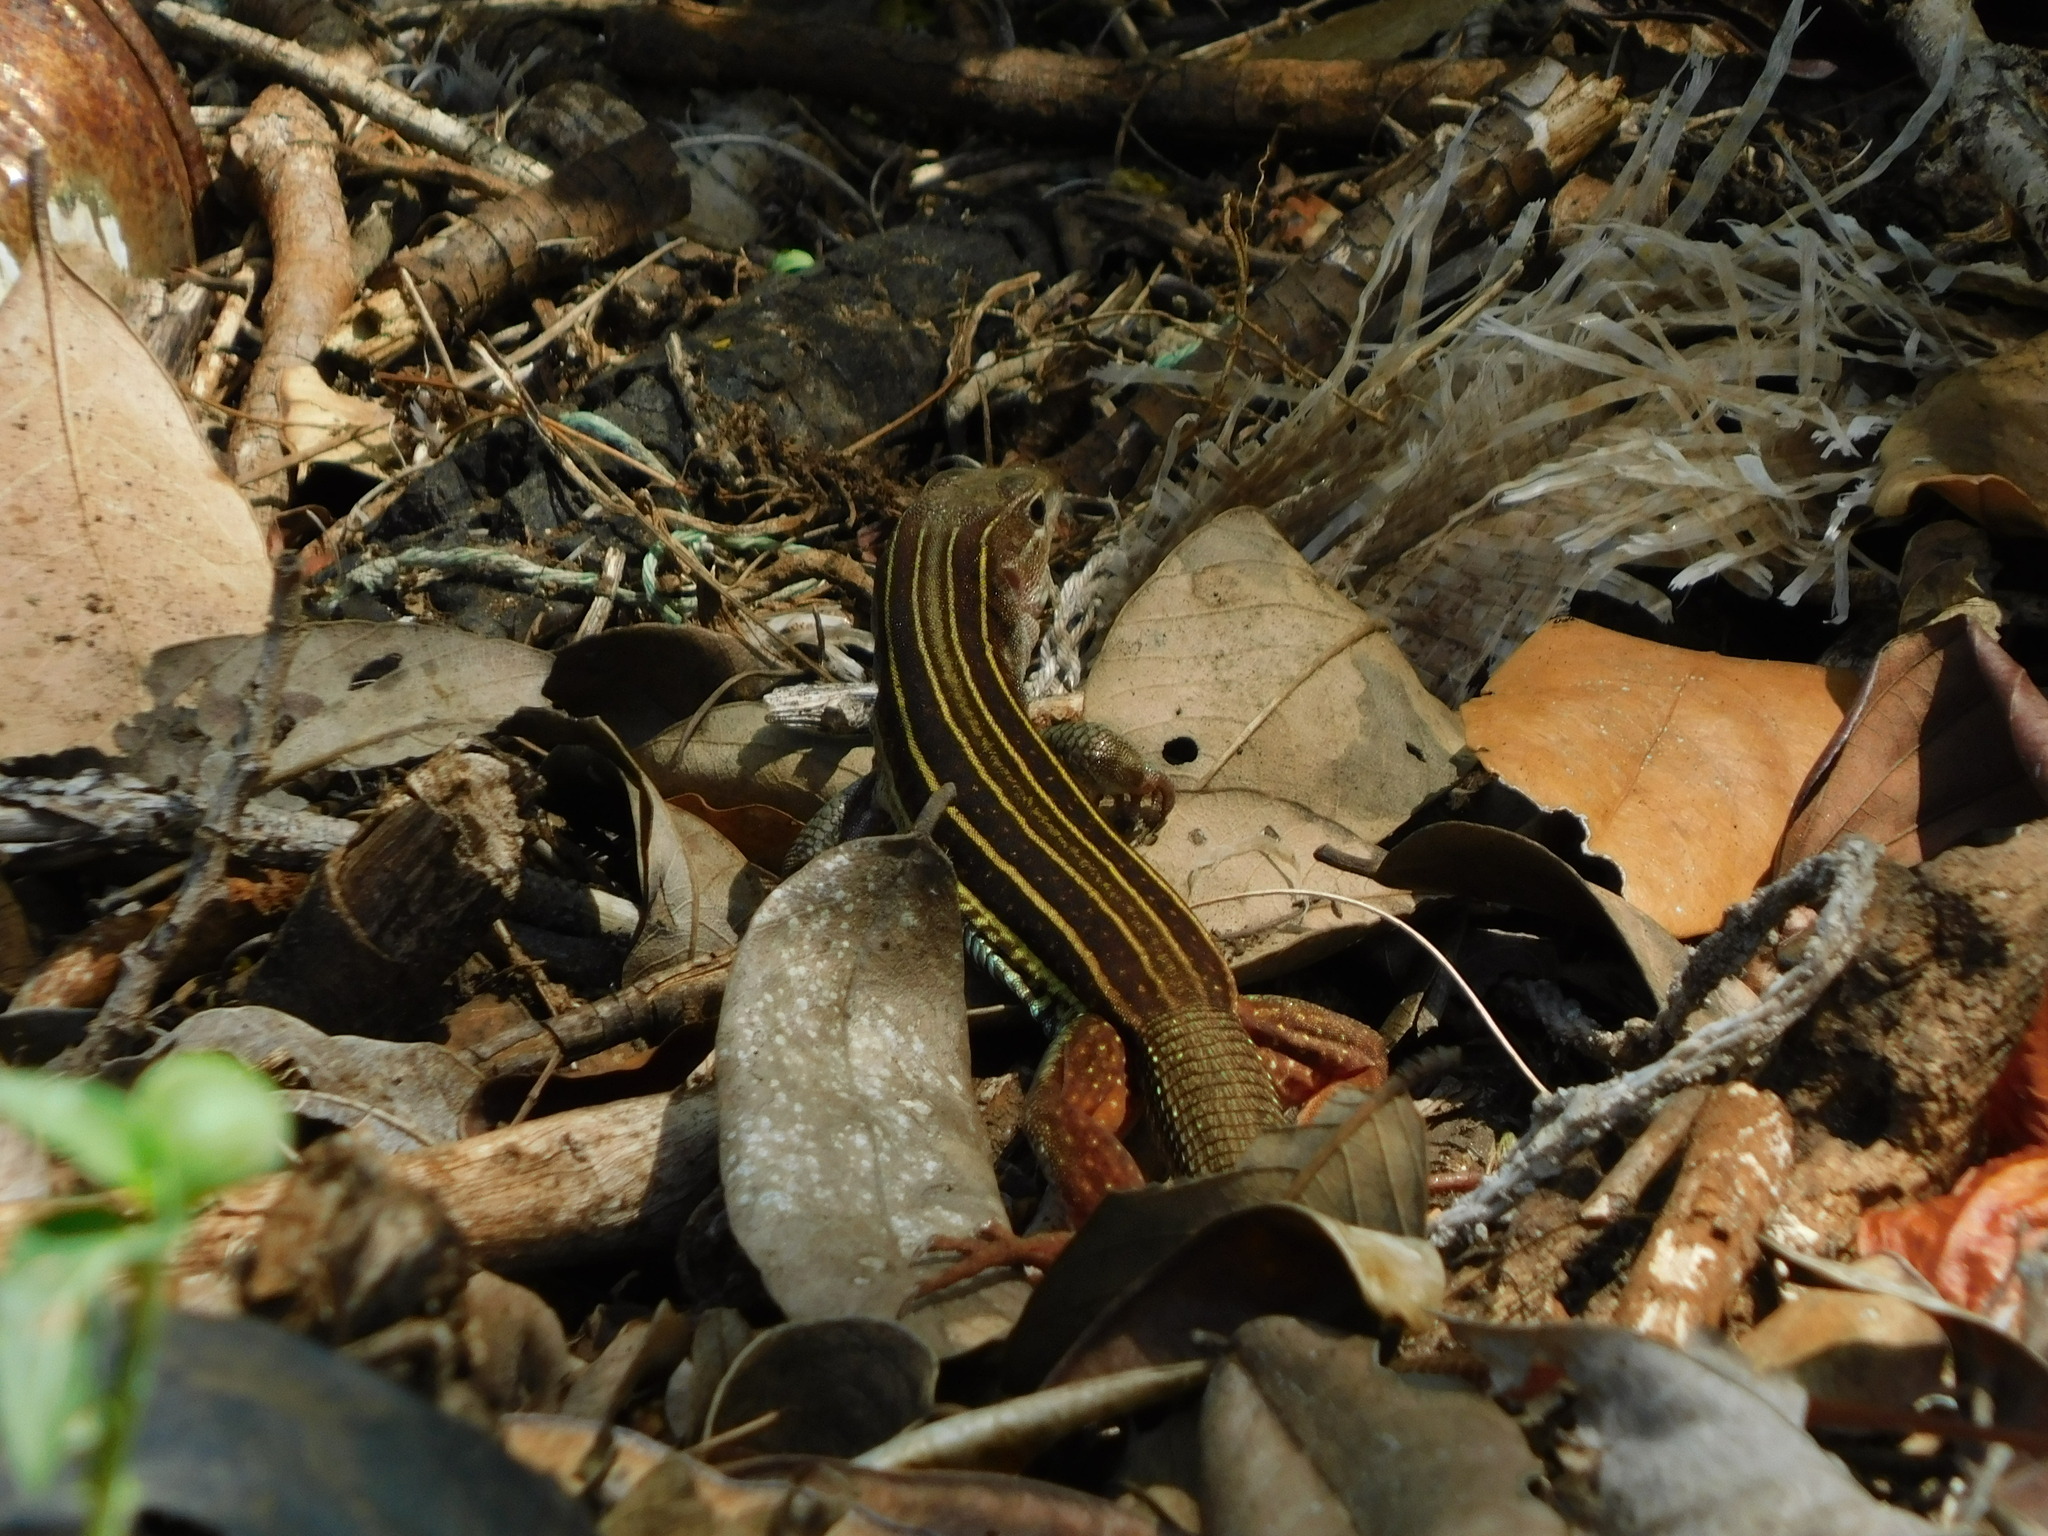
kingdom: Animalia
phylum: Chordata
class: Squamata
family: Teiidae
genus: Aspidoscelis
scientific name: Aspidoscelis angusticeps
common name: Yucatan whiptail
